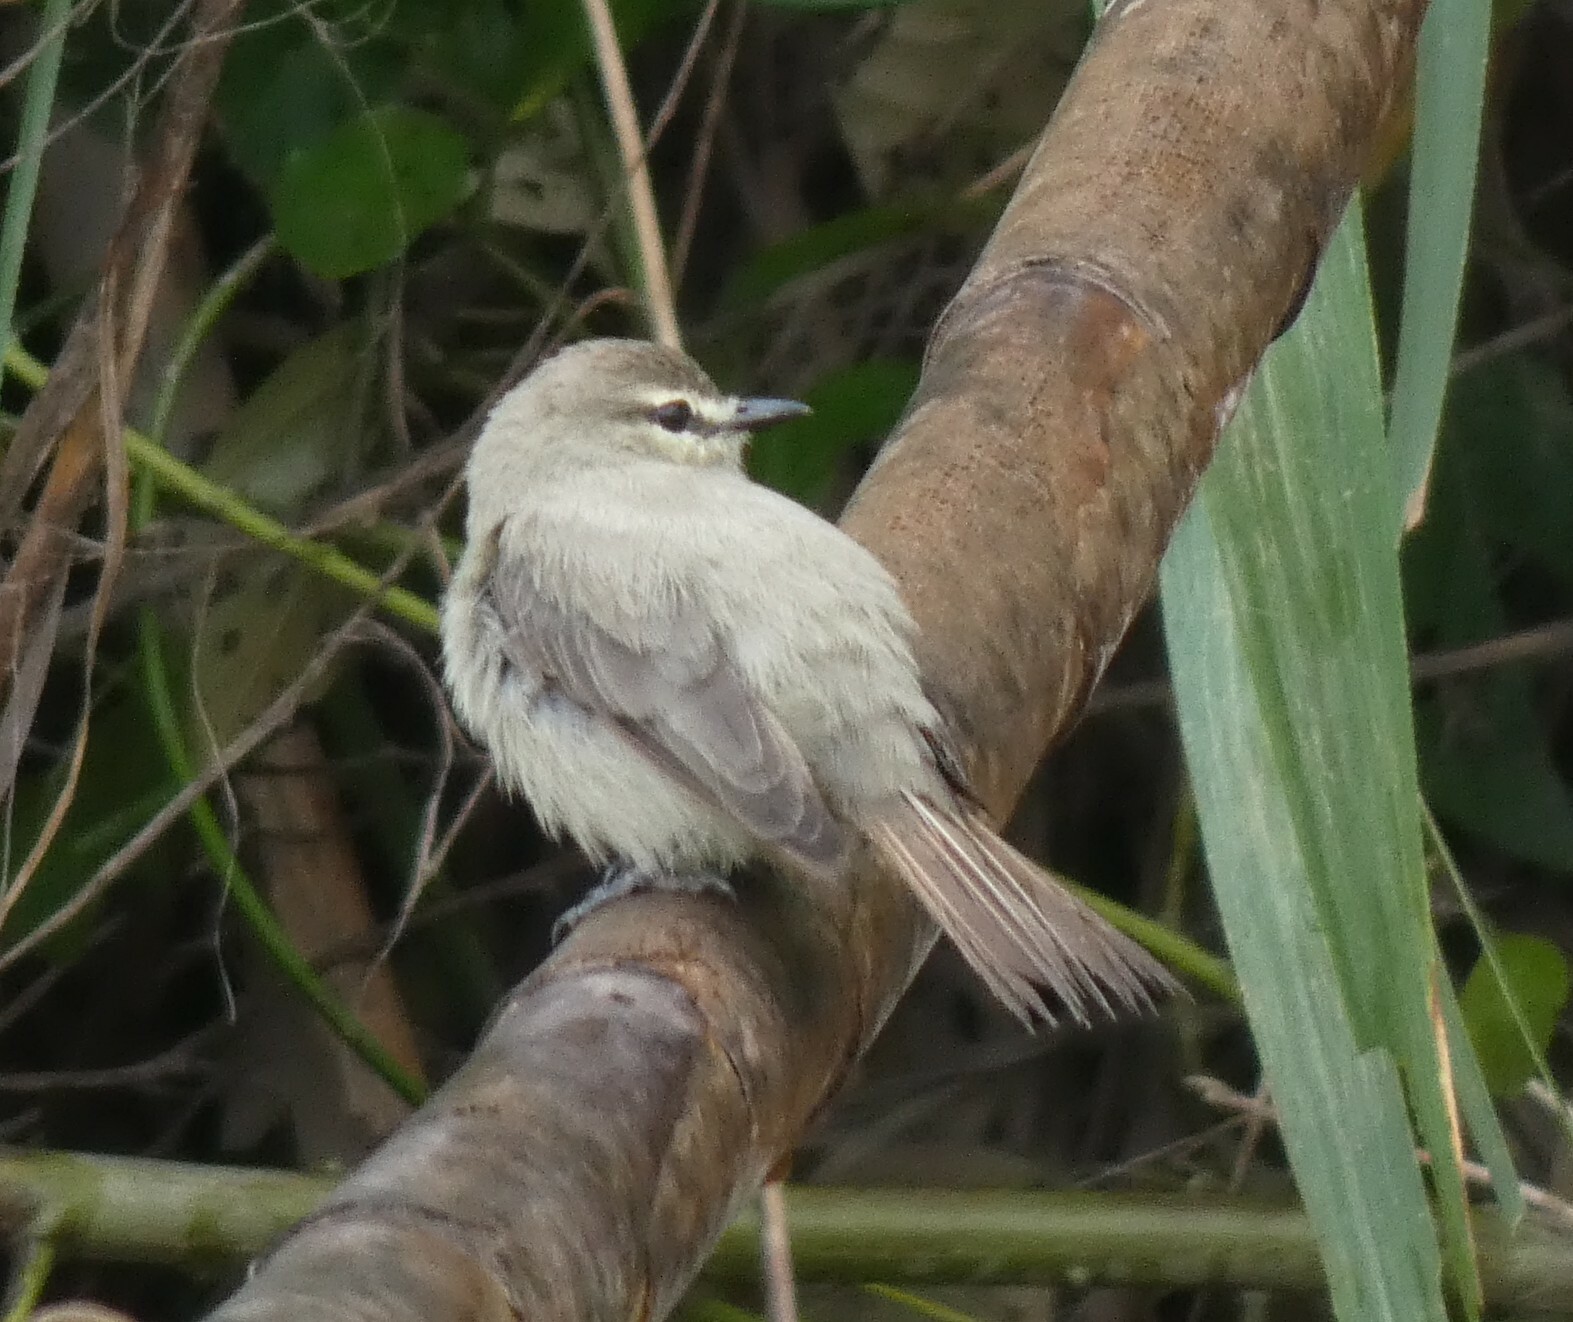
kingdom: Animalia
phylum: Chordata
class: Aves
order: Passeriformes
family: Tyrannidae
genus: Ochthornis
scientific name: Ochthornis littoralis
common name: Drab water tyrant
